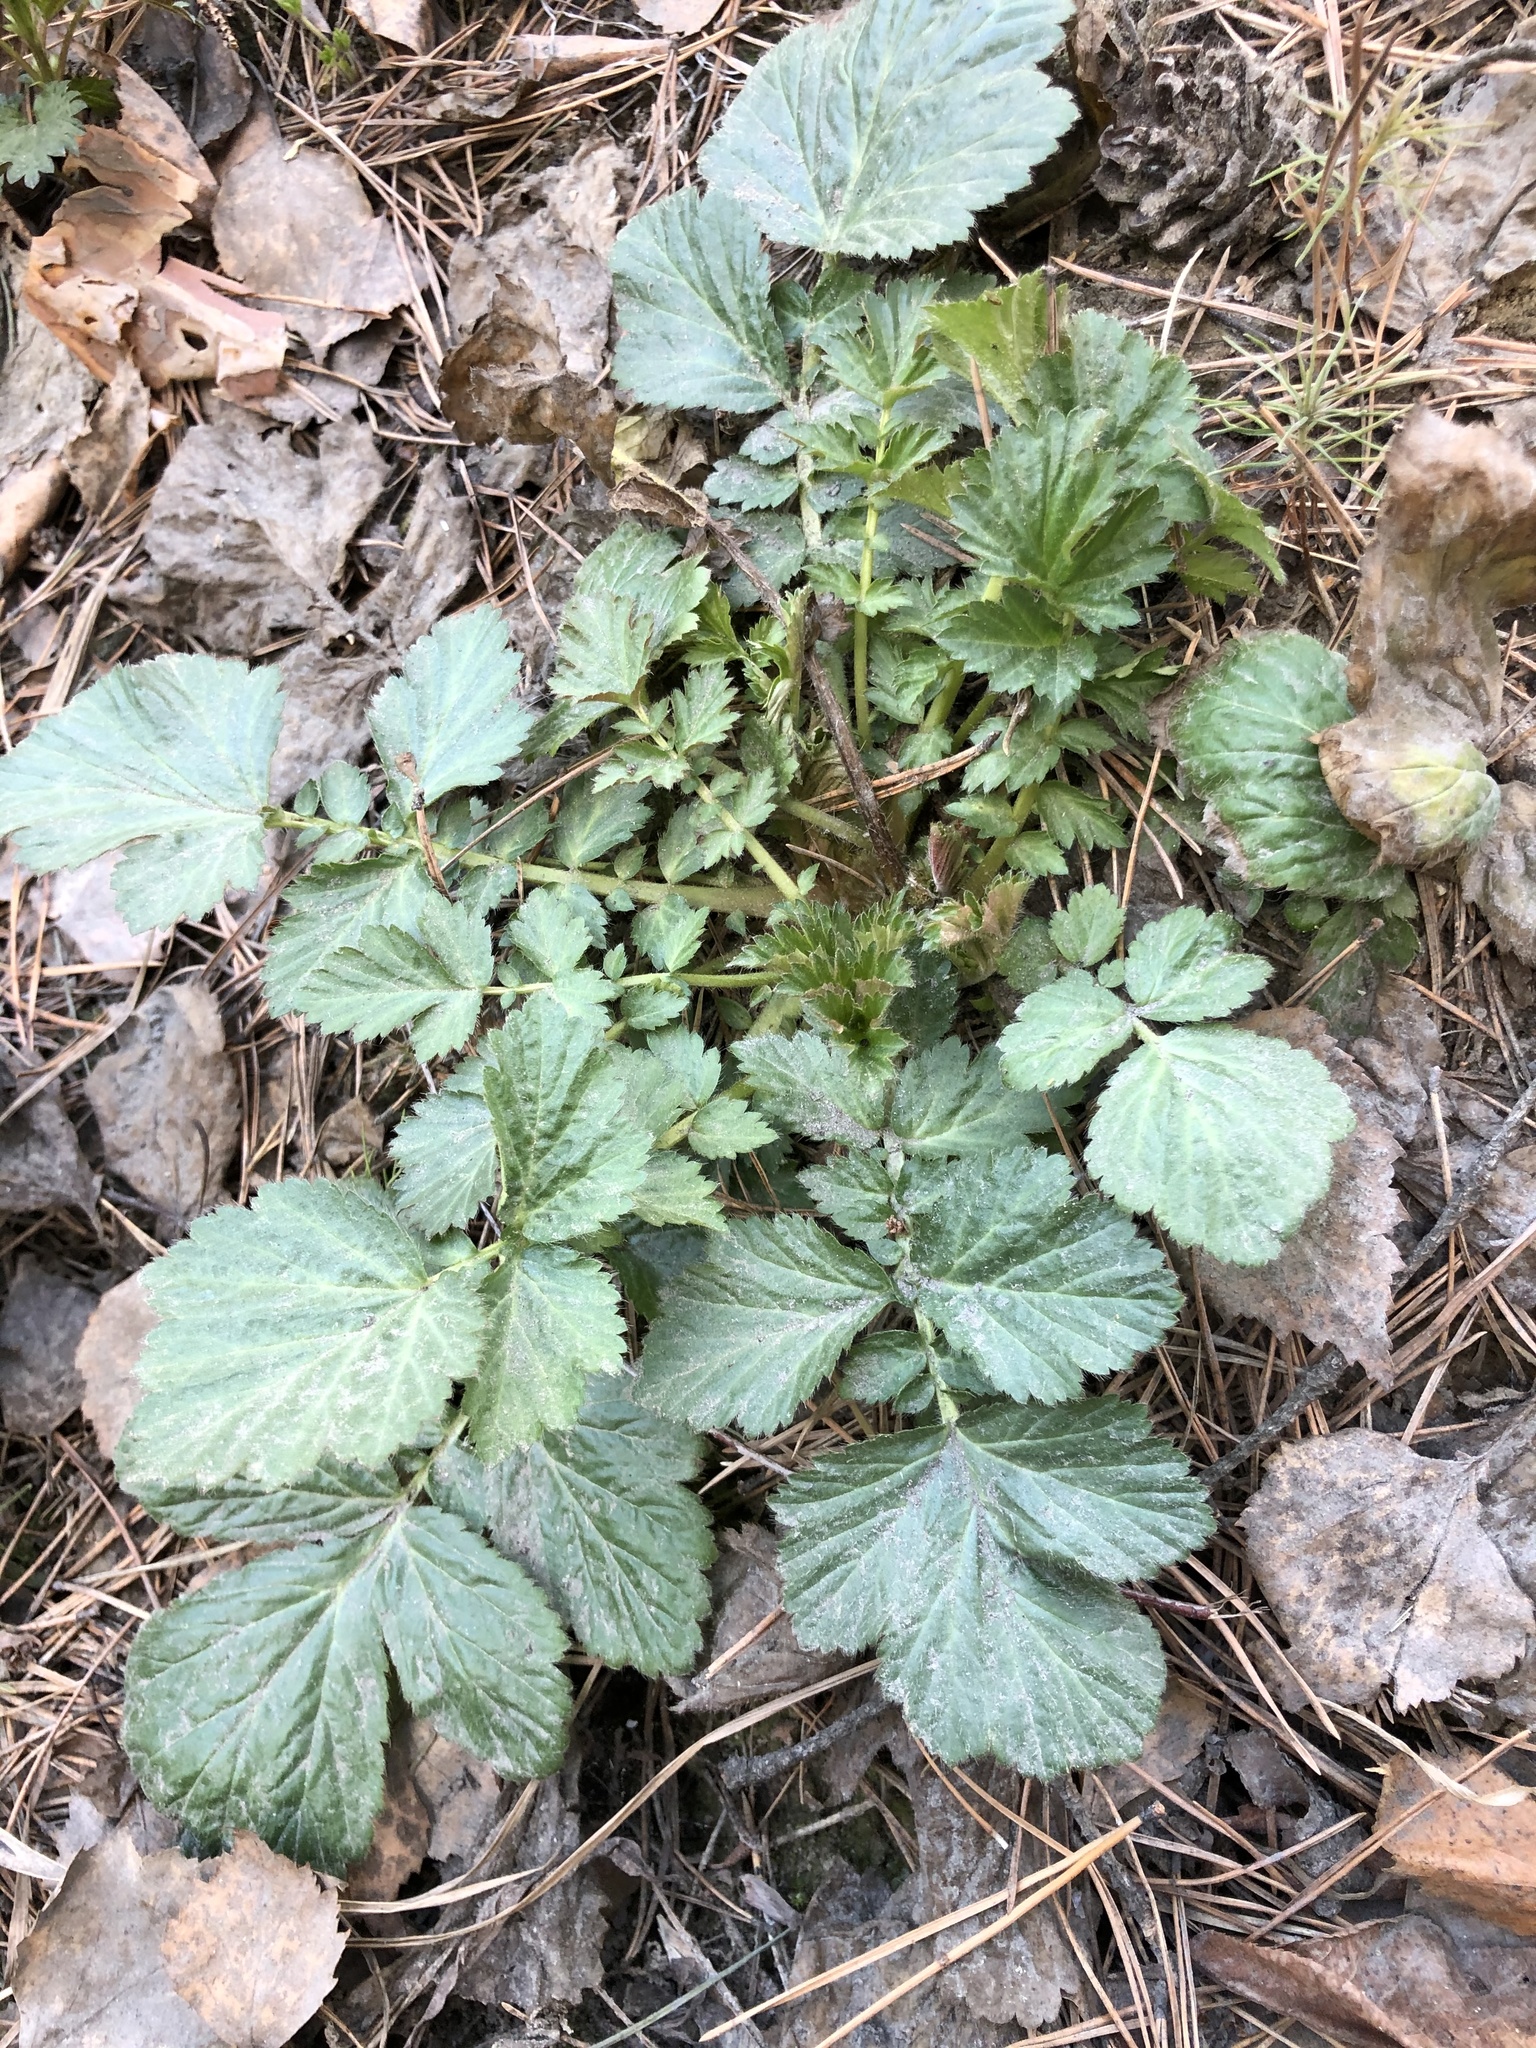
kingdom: Plantae
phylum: Tracheophyta
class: Magnoliopsida
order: Rosales
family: Rosaceae
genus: Geum
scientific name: Geum aleppicum
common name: Yellow avens
